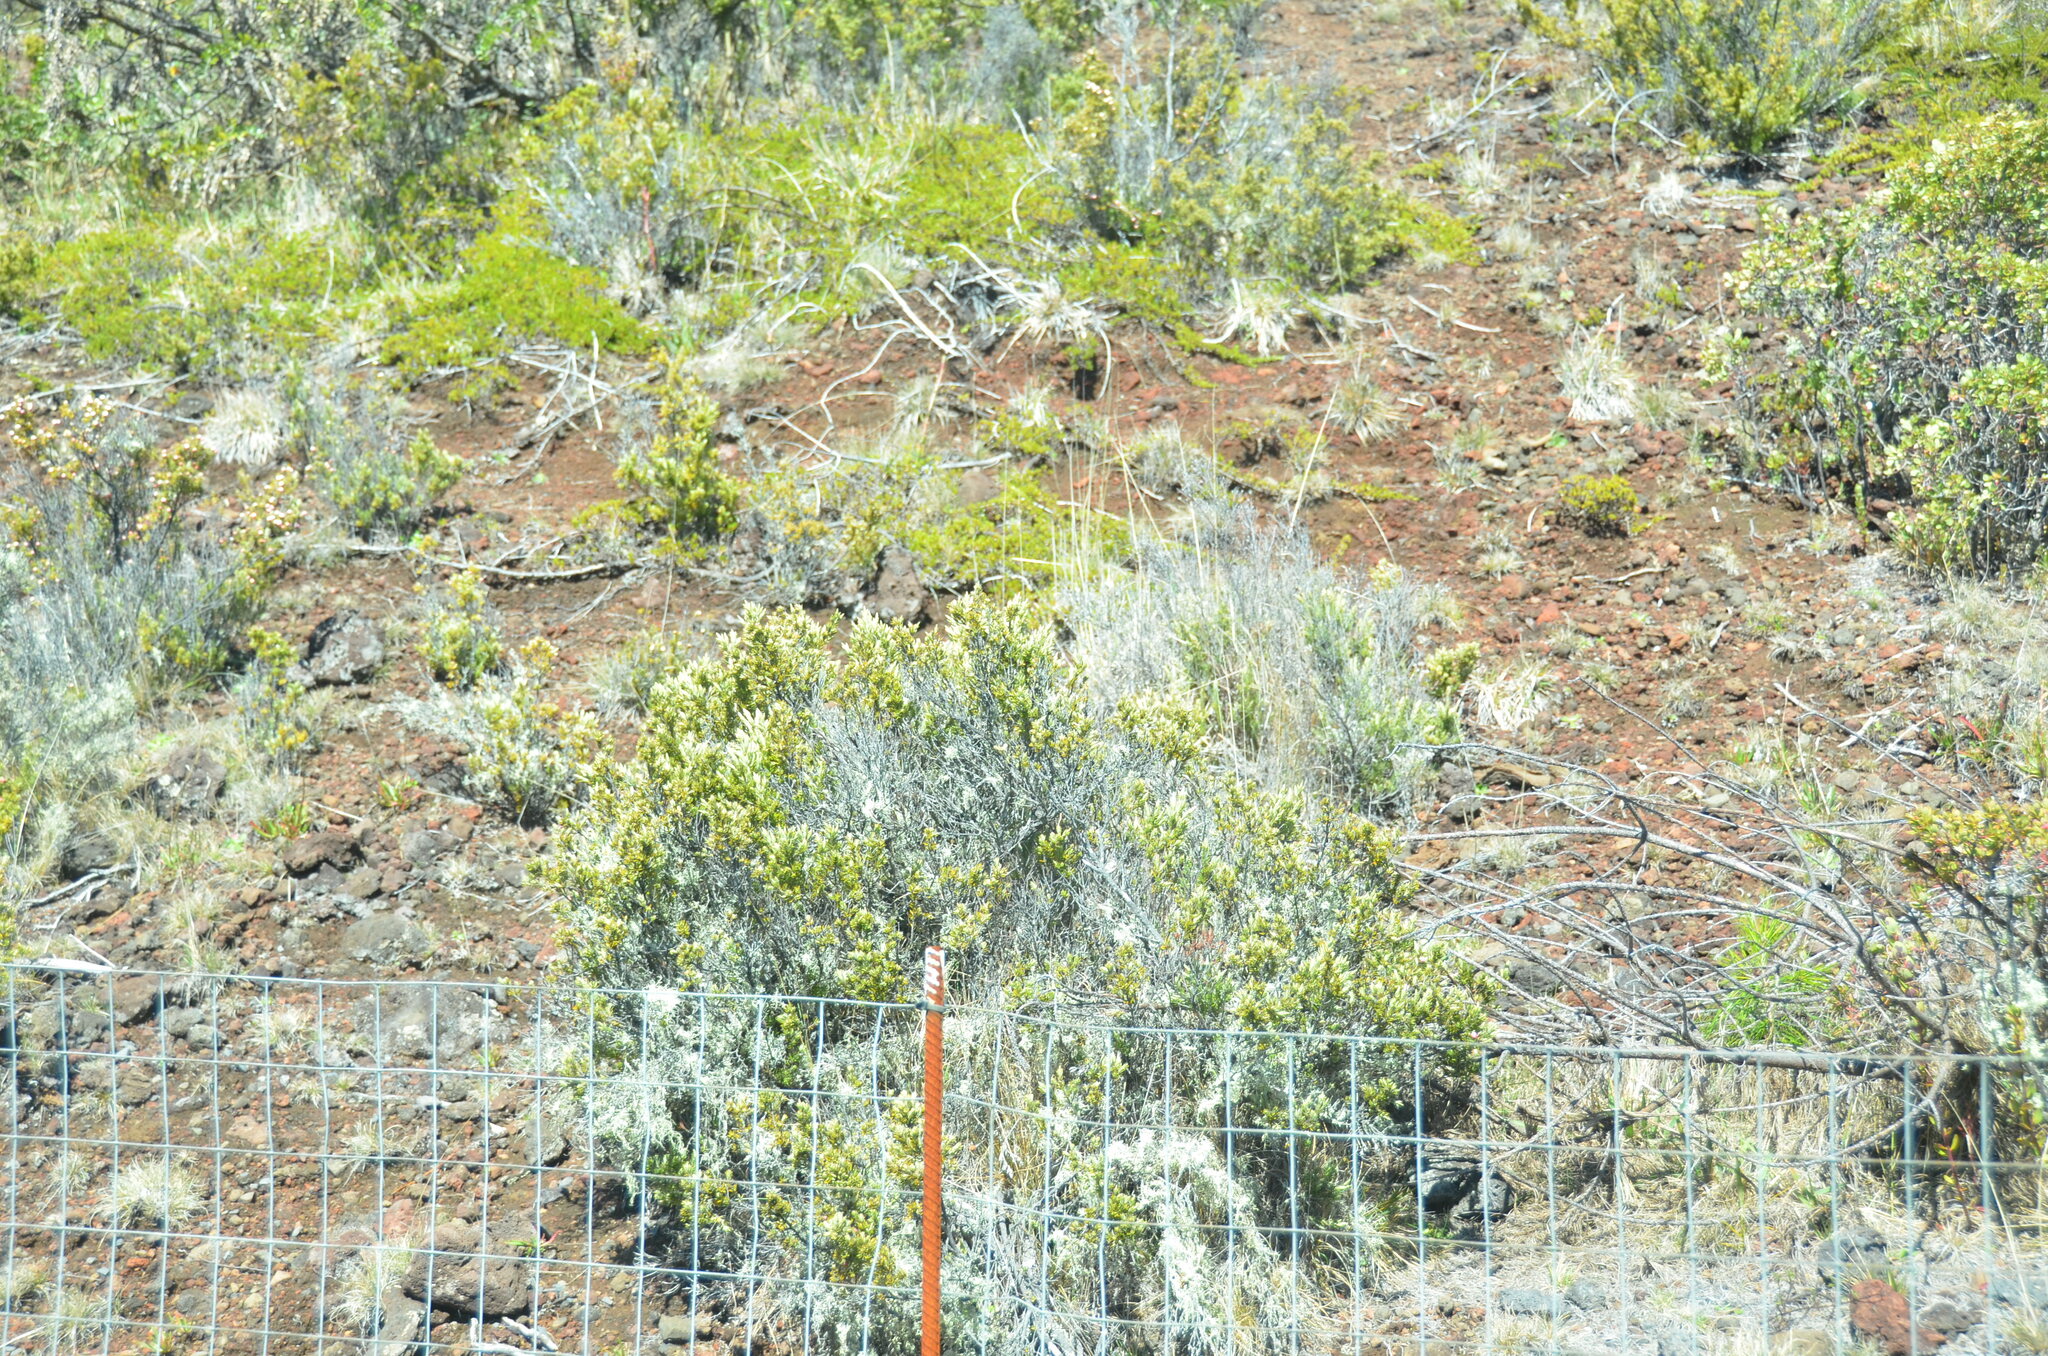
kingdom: Plantae
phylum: Tracheophyta
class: Magnoliopsida
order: Ericales
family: Ericaceae
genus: Leptecophylla
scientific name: Leptecophylla tameiameiae
